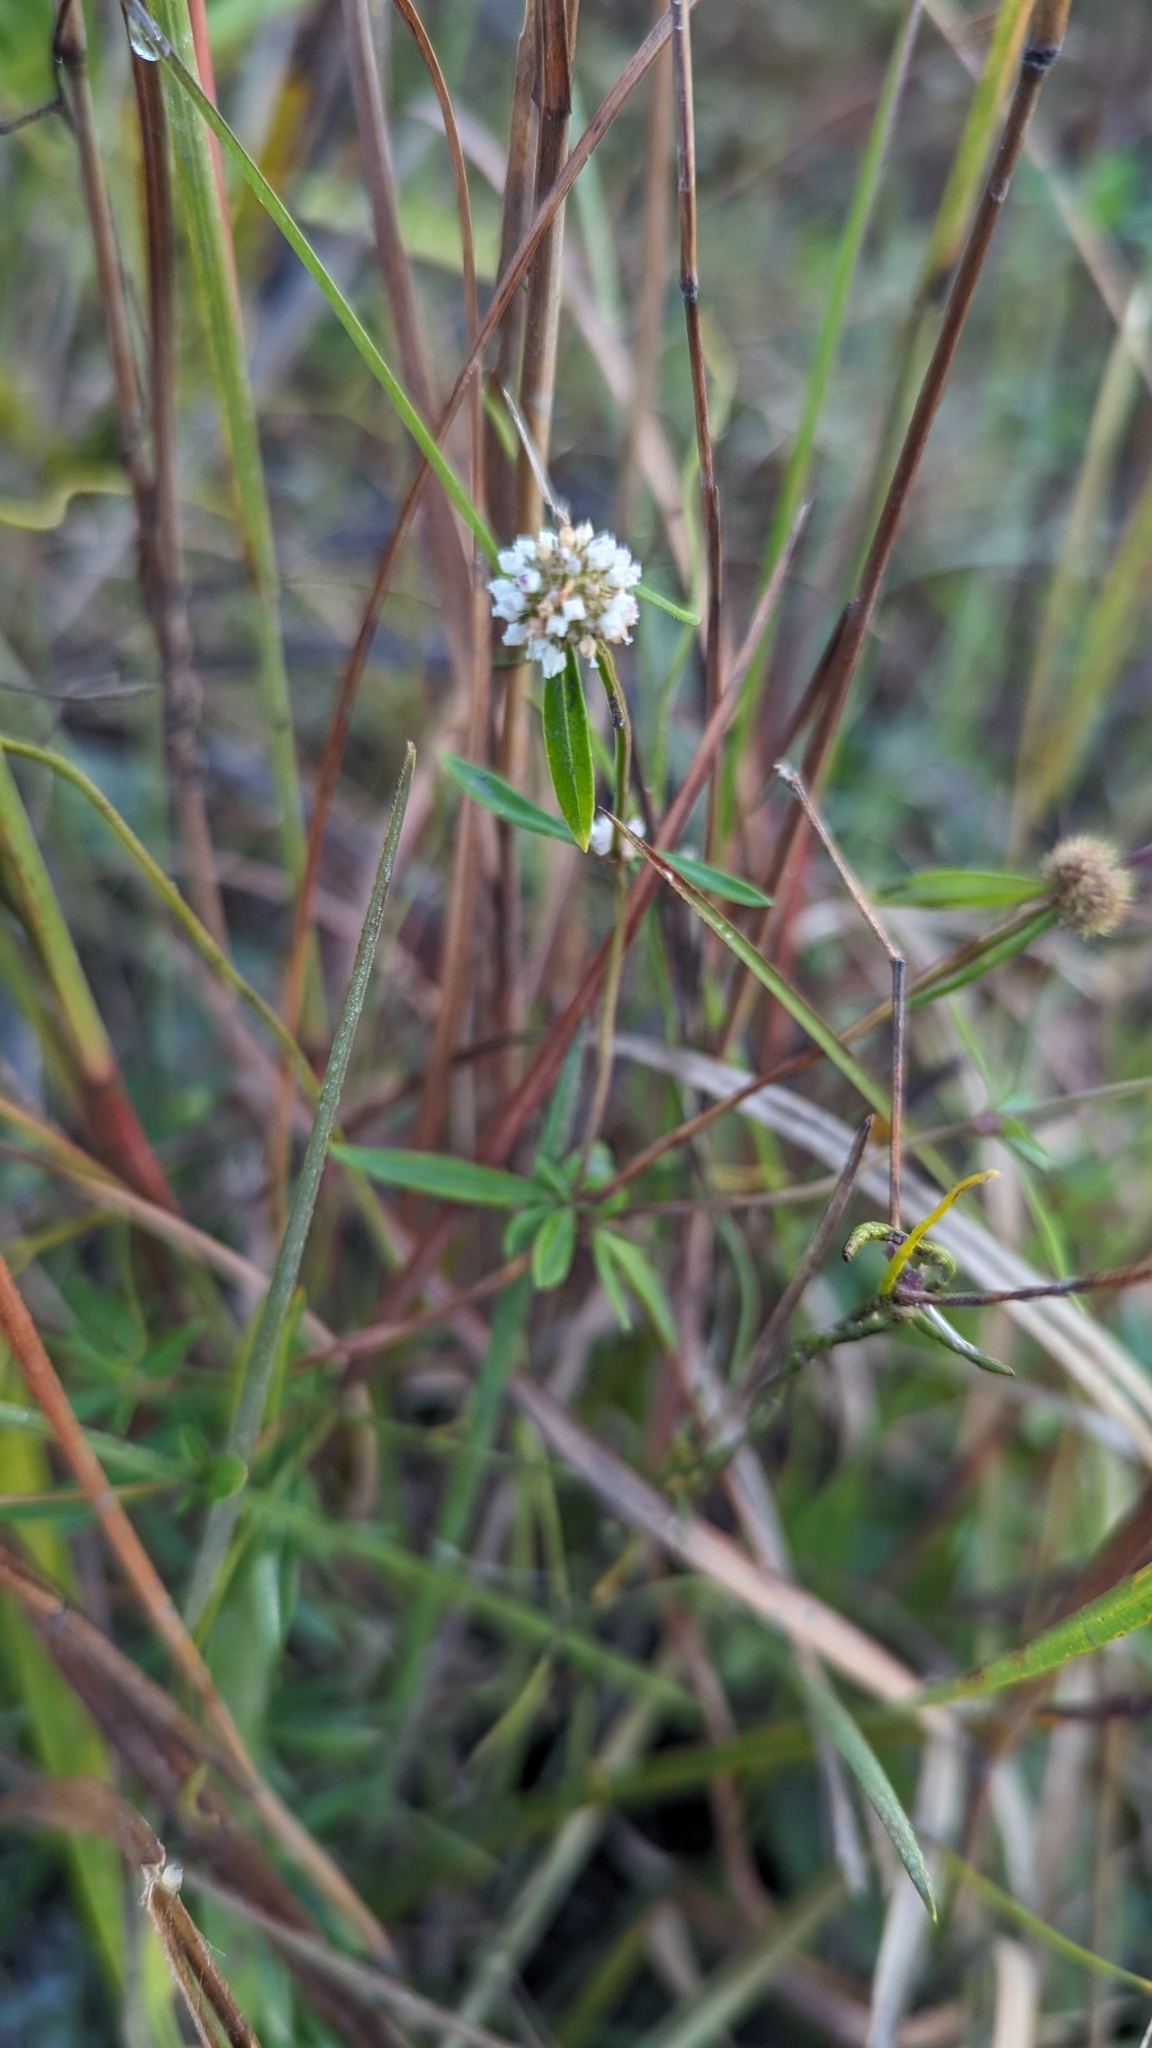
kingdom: Plantae
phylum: Tracheophyta
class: Magnoliopsida
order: Gentianales
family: Rubiaceae
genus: Spermacoce
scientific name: Spermacoce verticillata
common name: Shrubby false buttonweed
